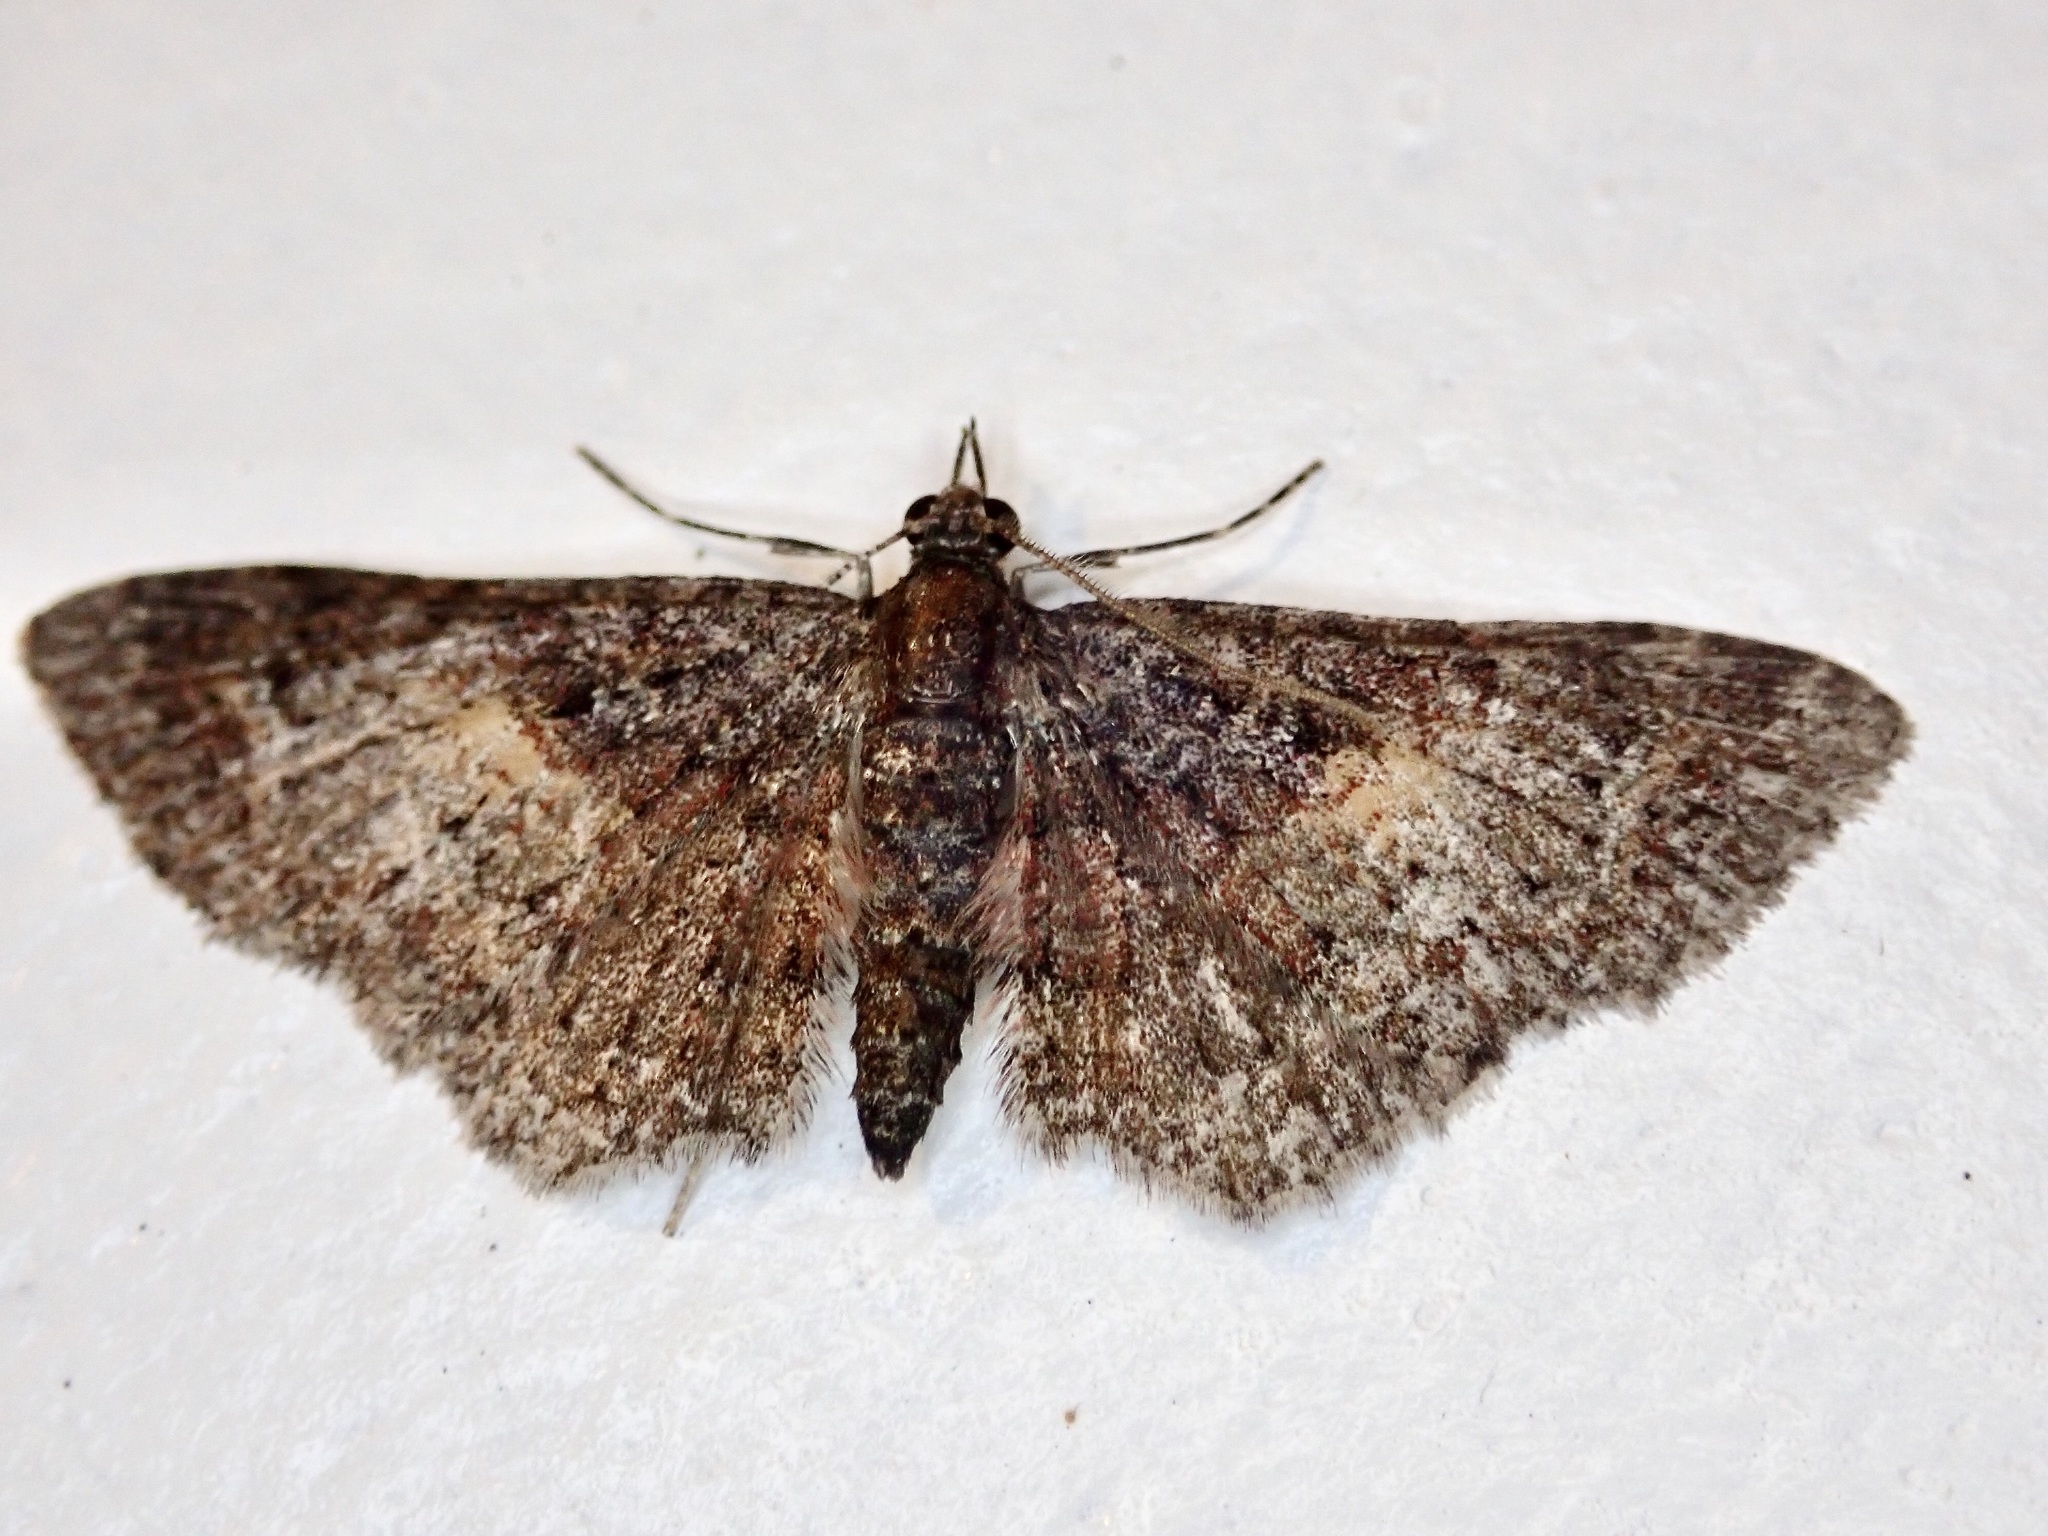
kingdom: Animalia
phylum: Arthropoda
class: Insecta
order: Lepidoptera
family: Geometridae
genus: Pasiphilodes
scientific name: Pasiphilodes testulata
